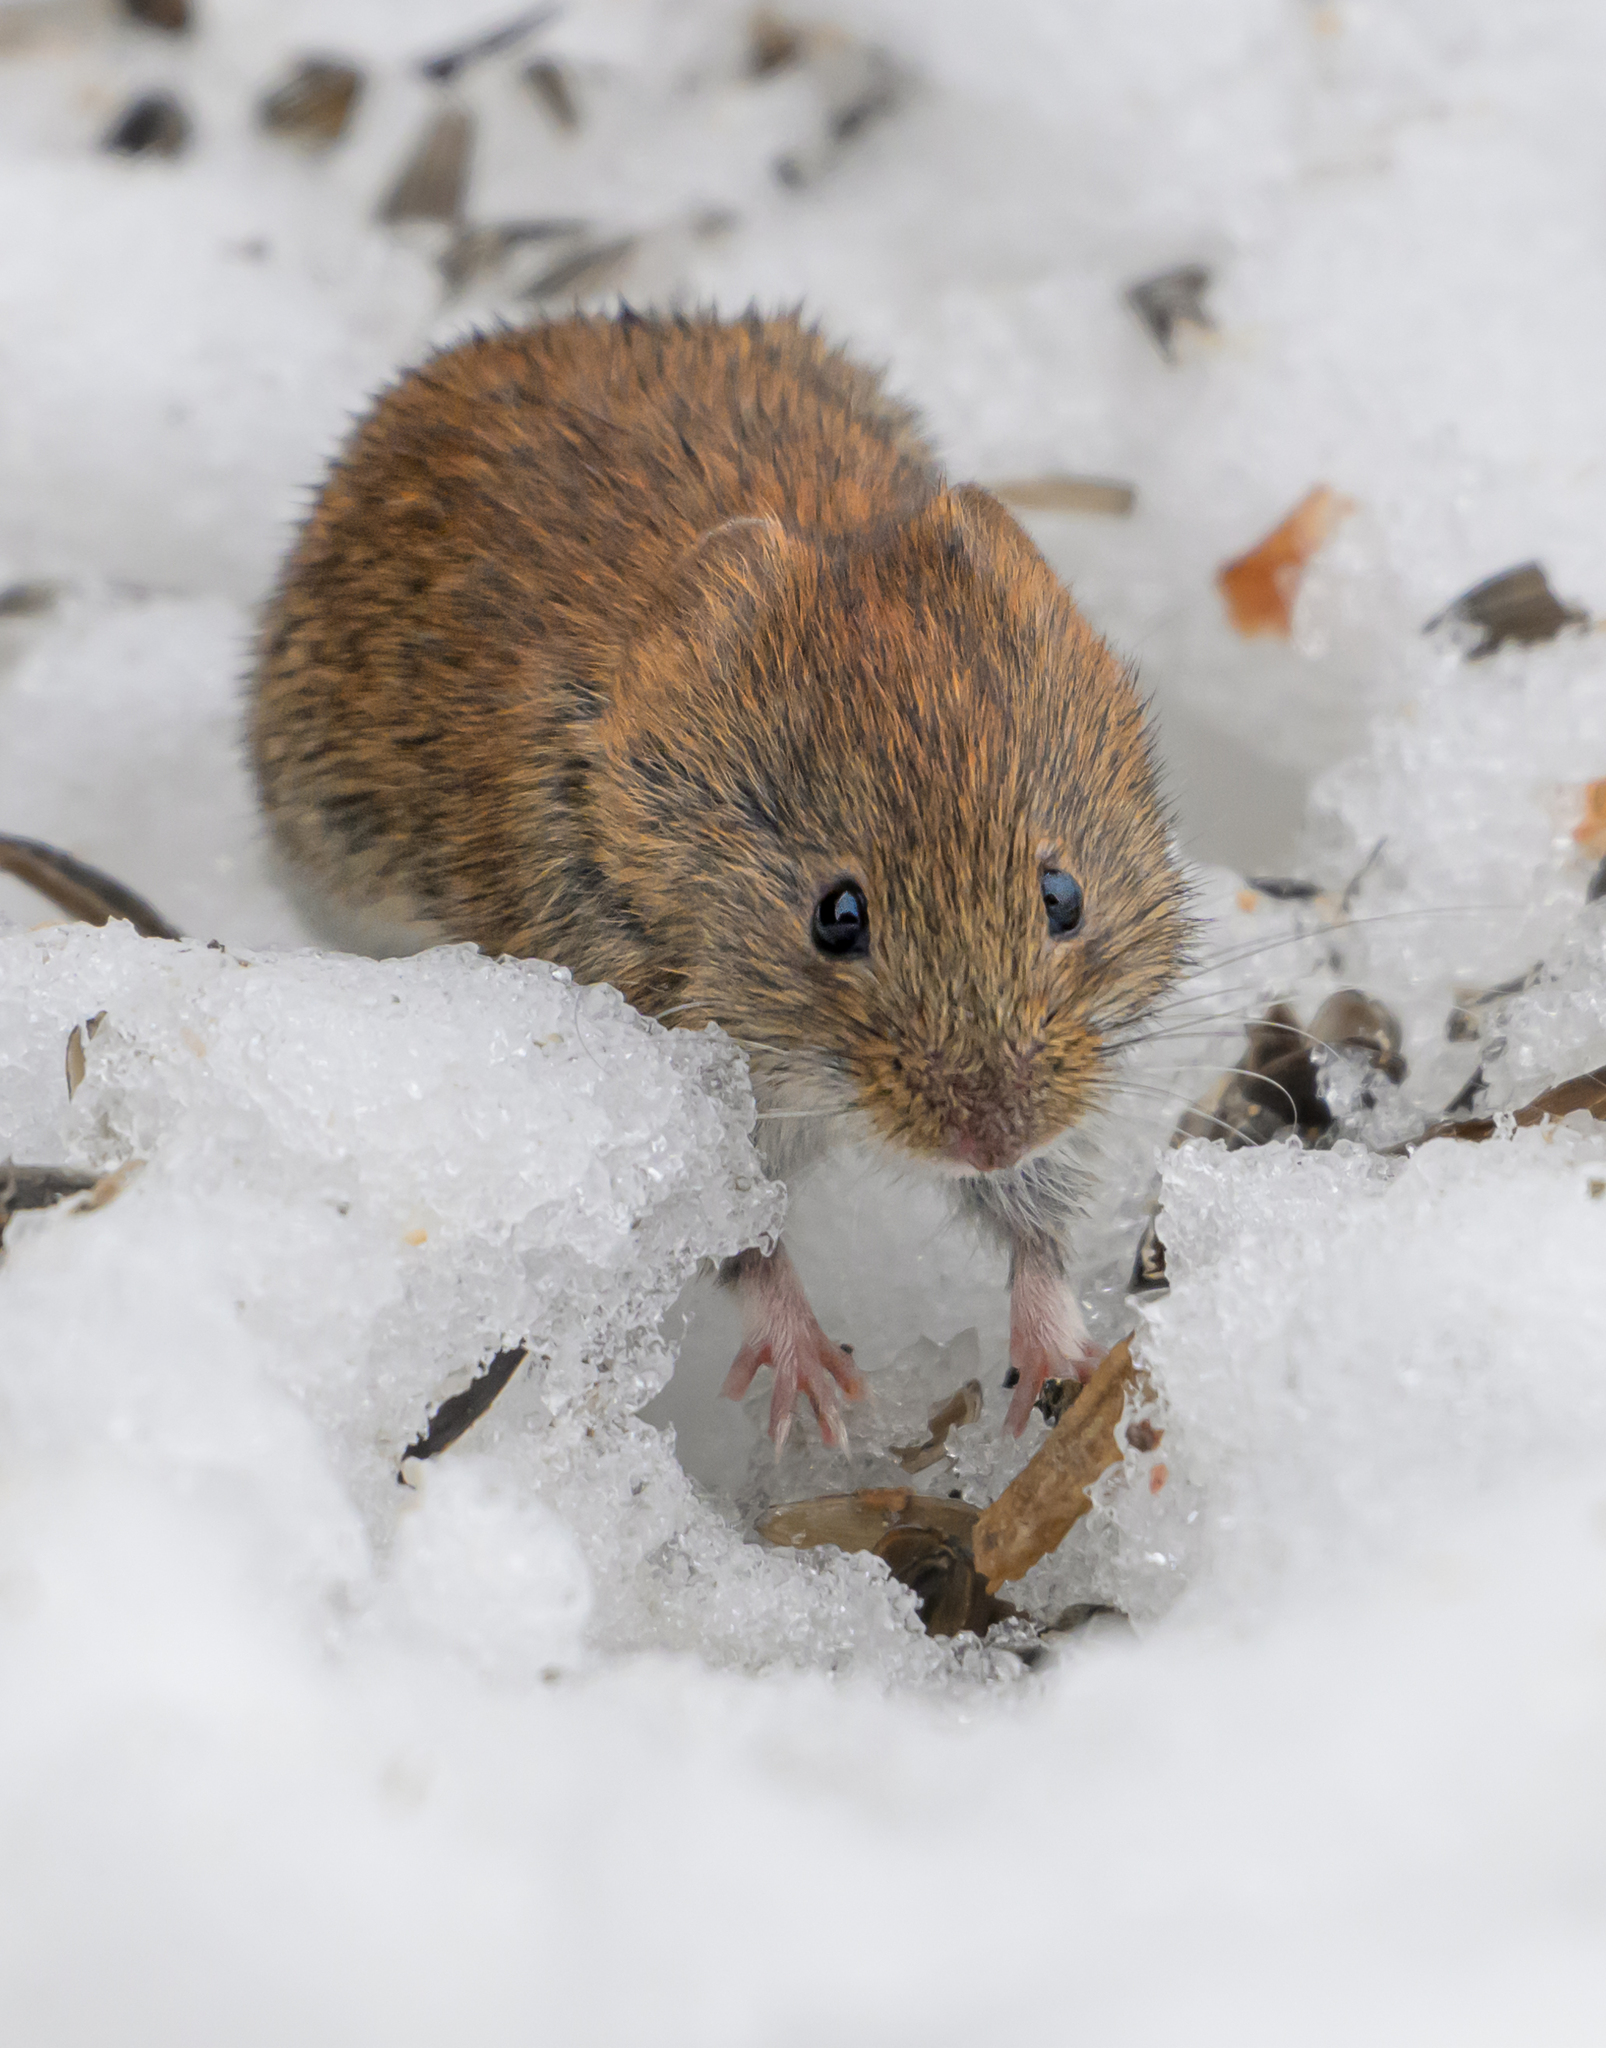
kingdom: Animalia
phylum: Chordata
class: Mammalia
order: Rodentia
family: Cricetidae
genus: Myodes
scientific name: Myodes glareolus
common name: Bank vole
